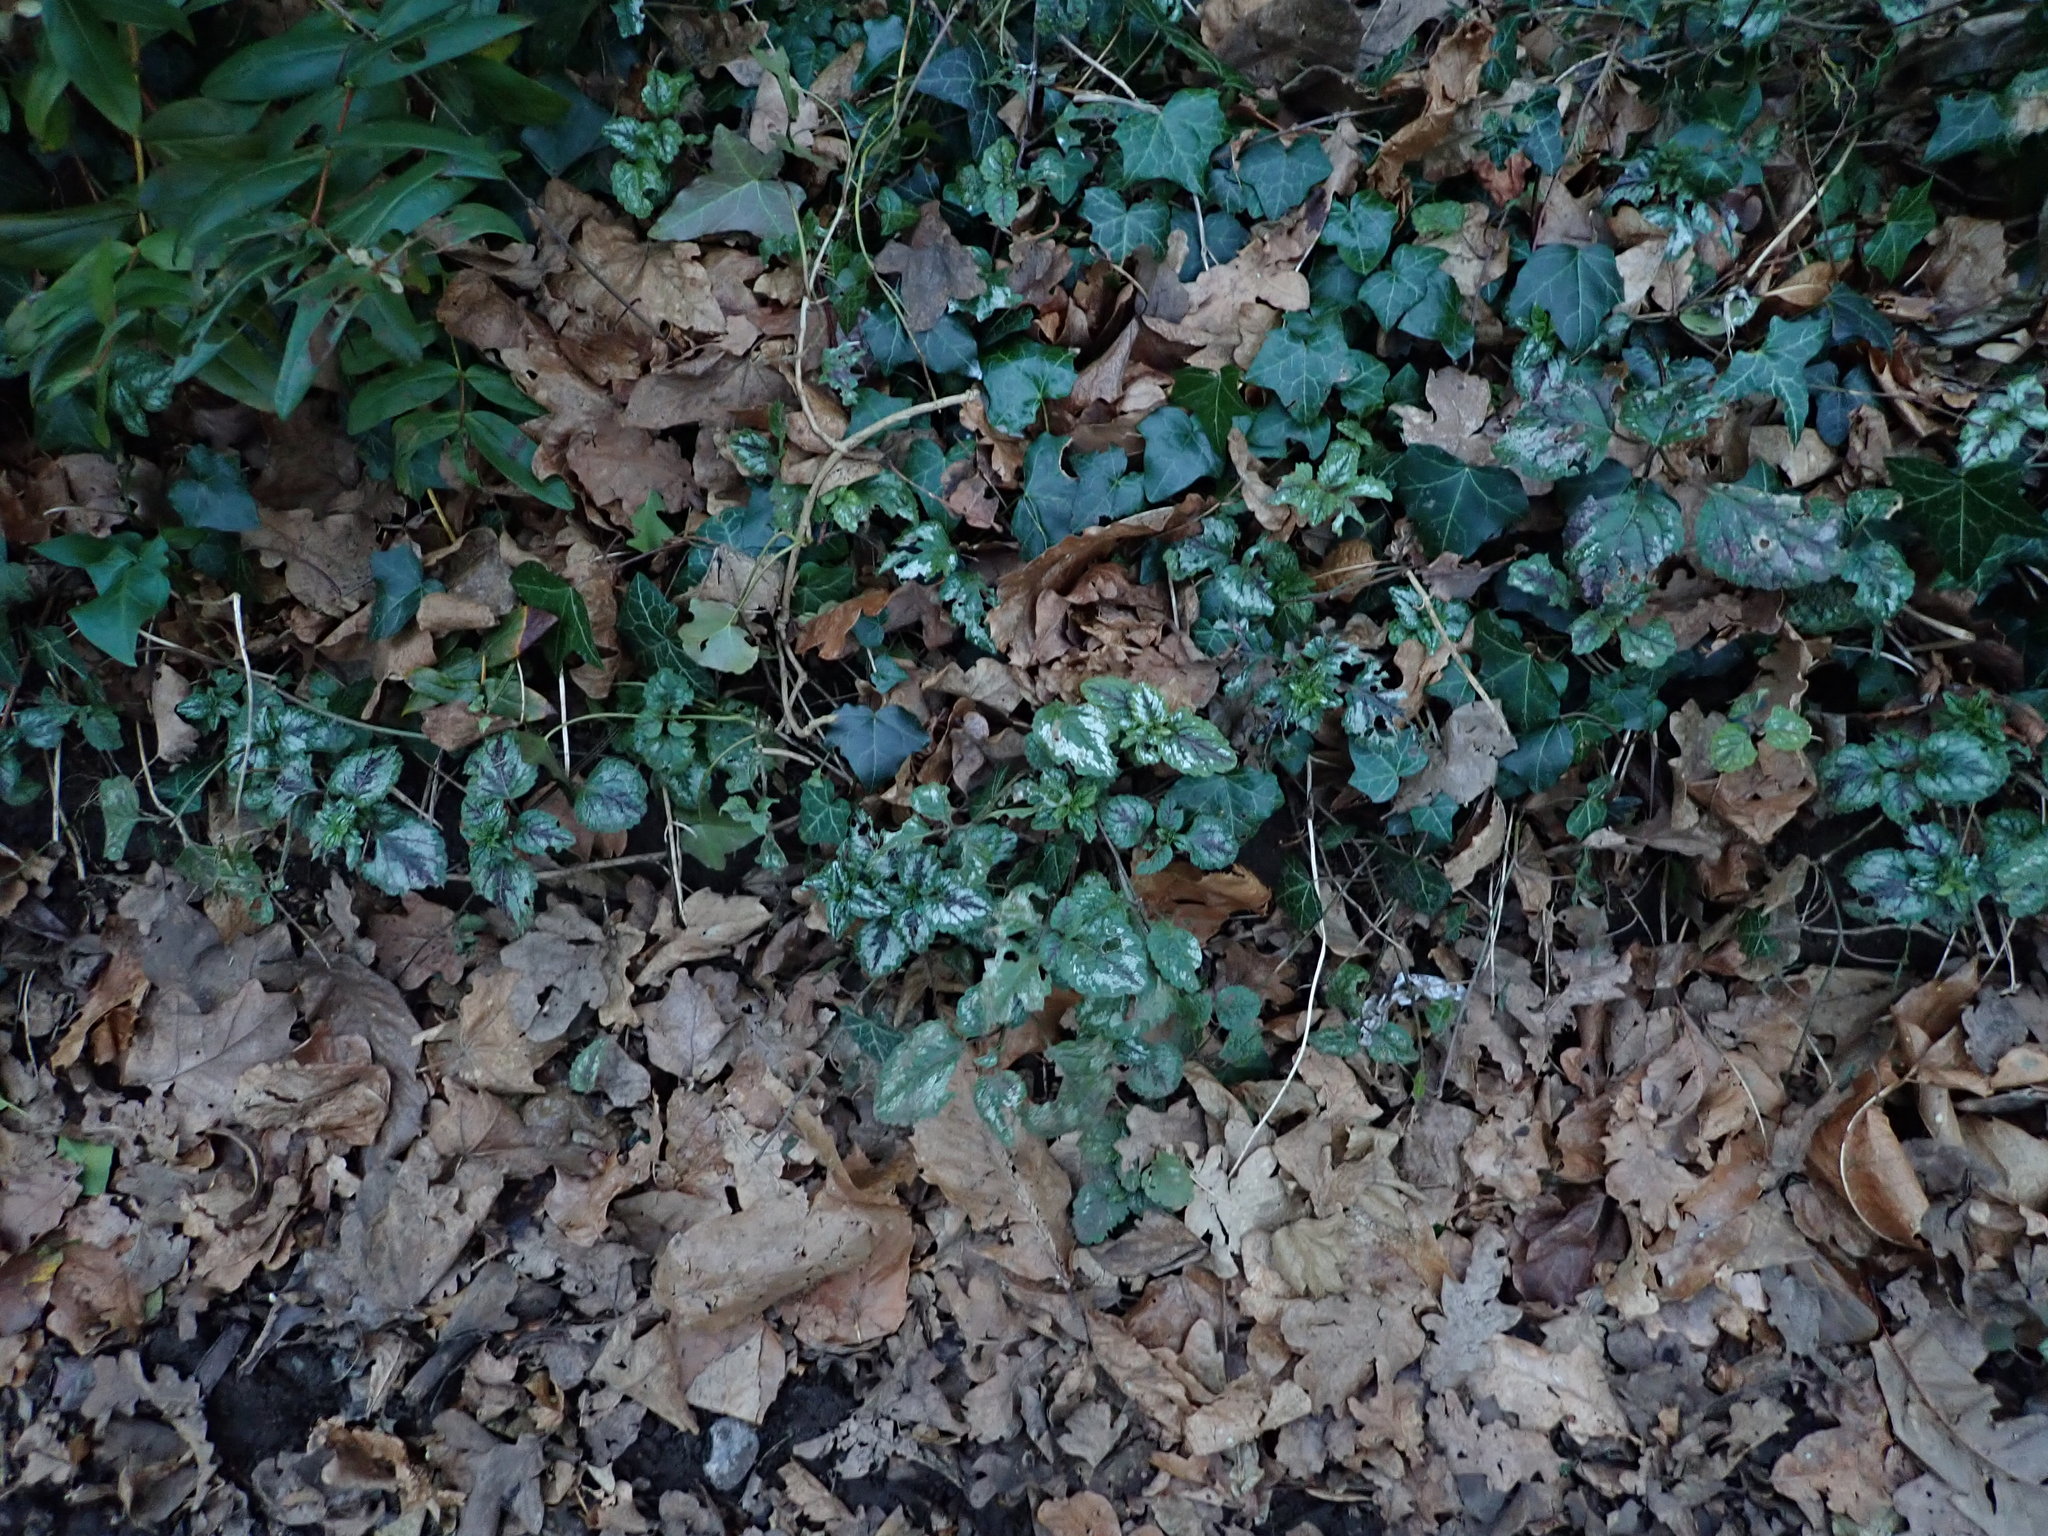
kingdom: Plantae
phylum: Tracheophyta
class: Magnoliopsida
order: Lamiales
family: Lamiaceae
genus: Lamium
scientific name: Lamium galeobdolon
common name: Yellow archangel
